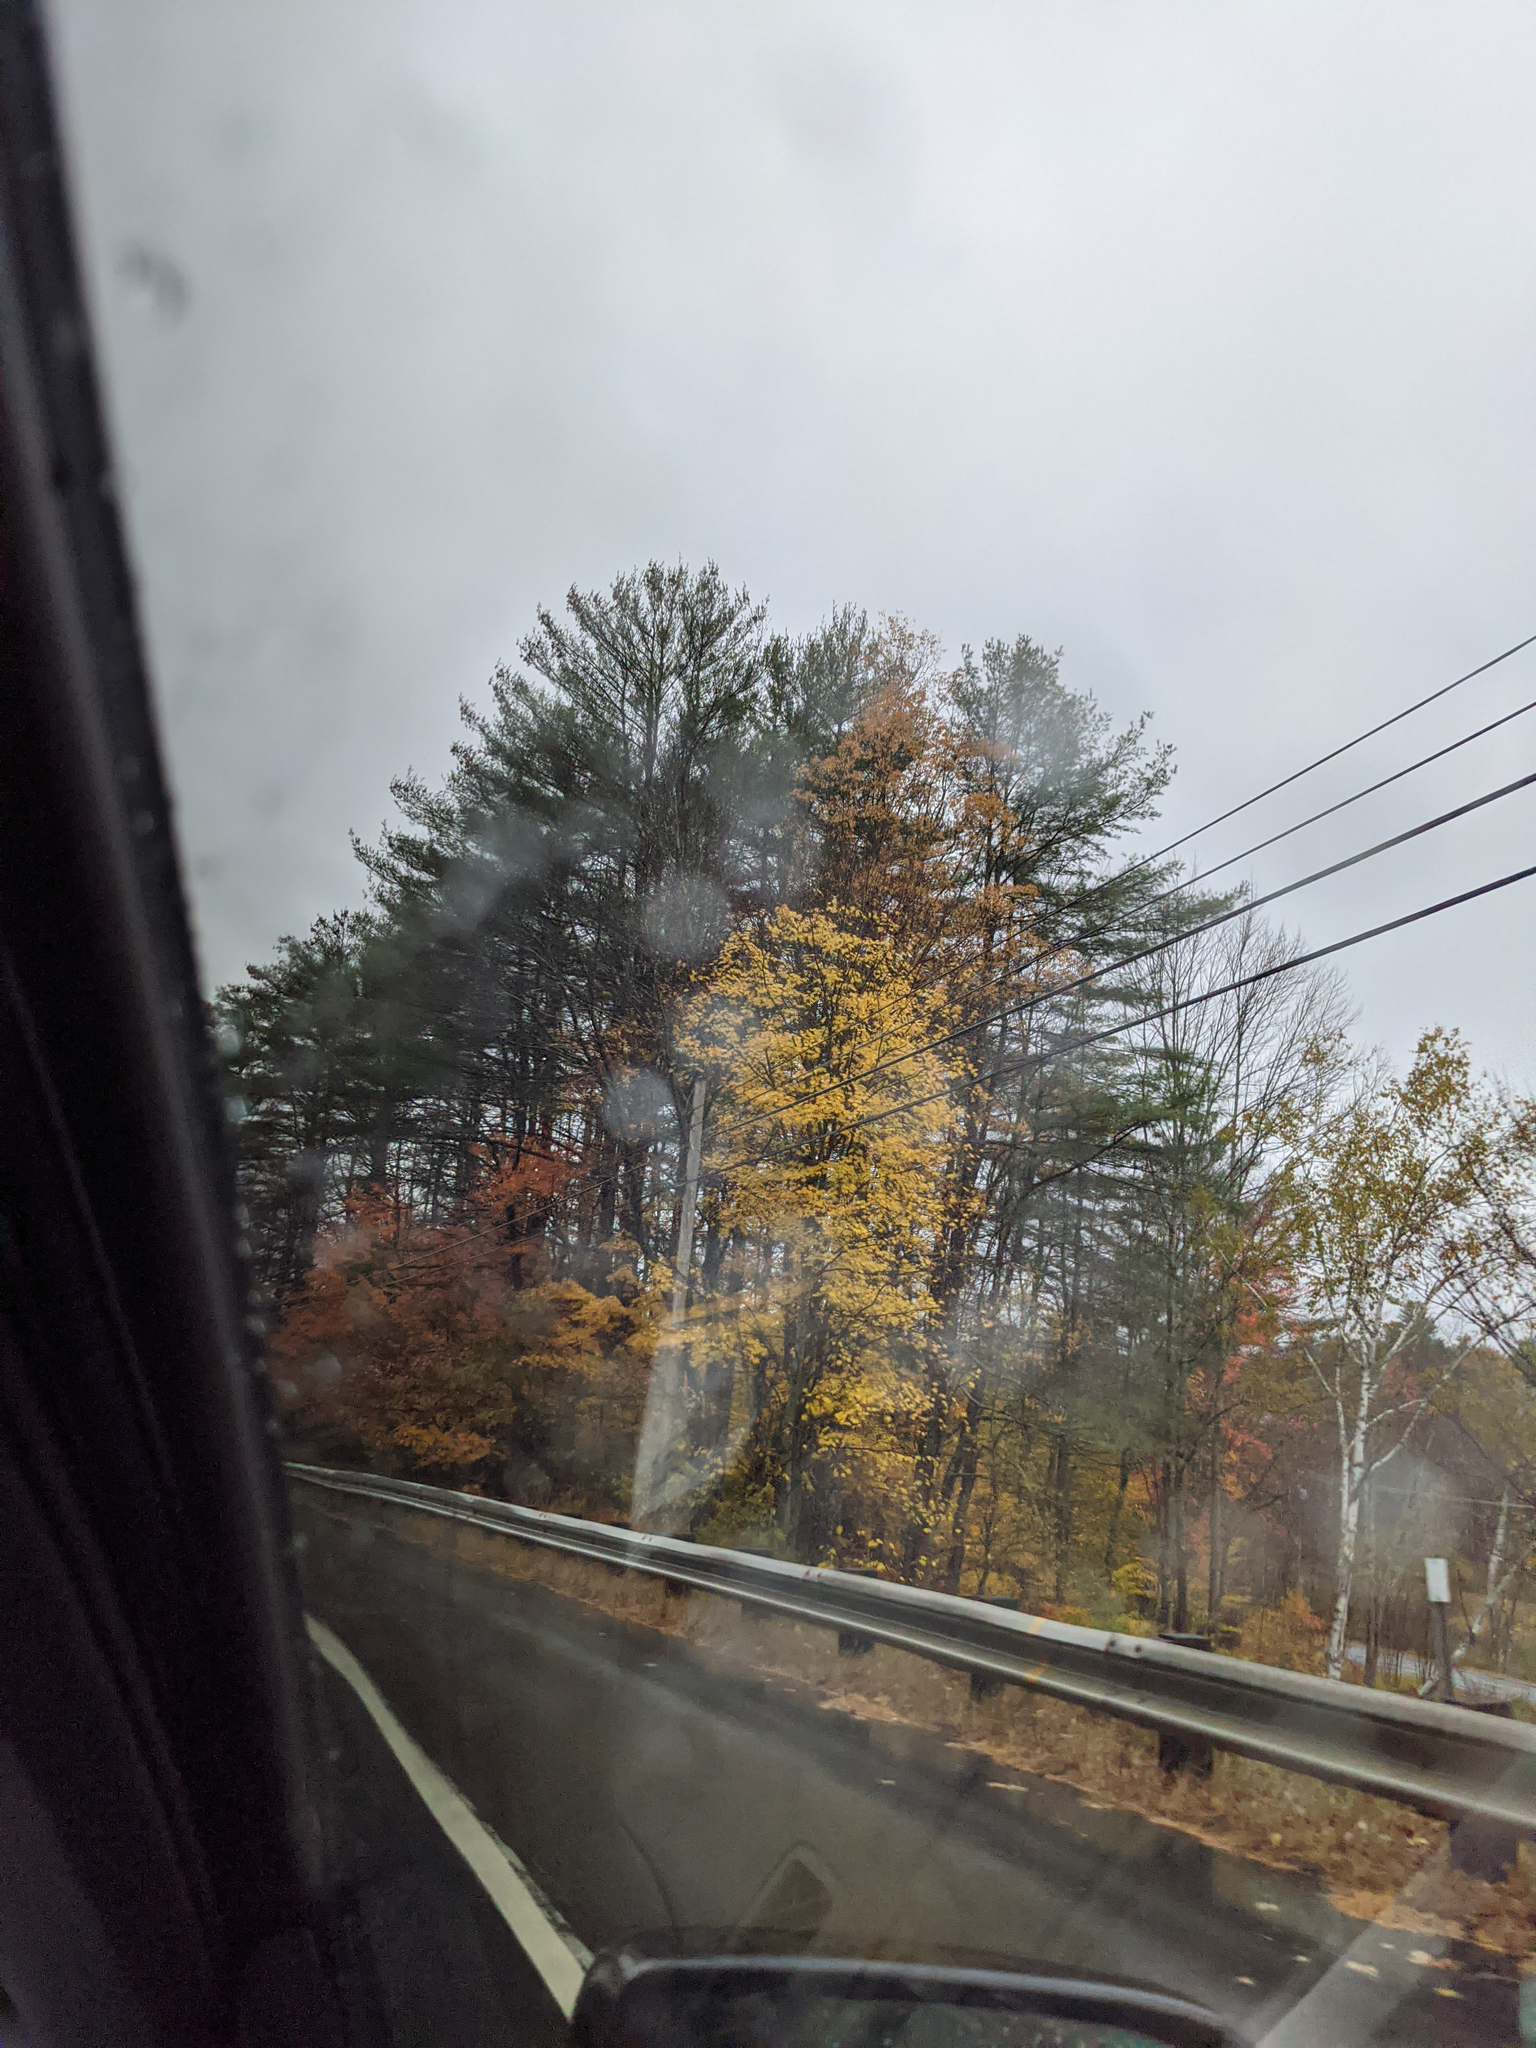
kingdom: Plantae
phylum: Tracheophyta
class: Pinopsida
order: Pinales
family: Pinaceae
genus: Pinus
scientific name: Pinus strobus
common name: Weymouth pine
